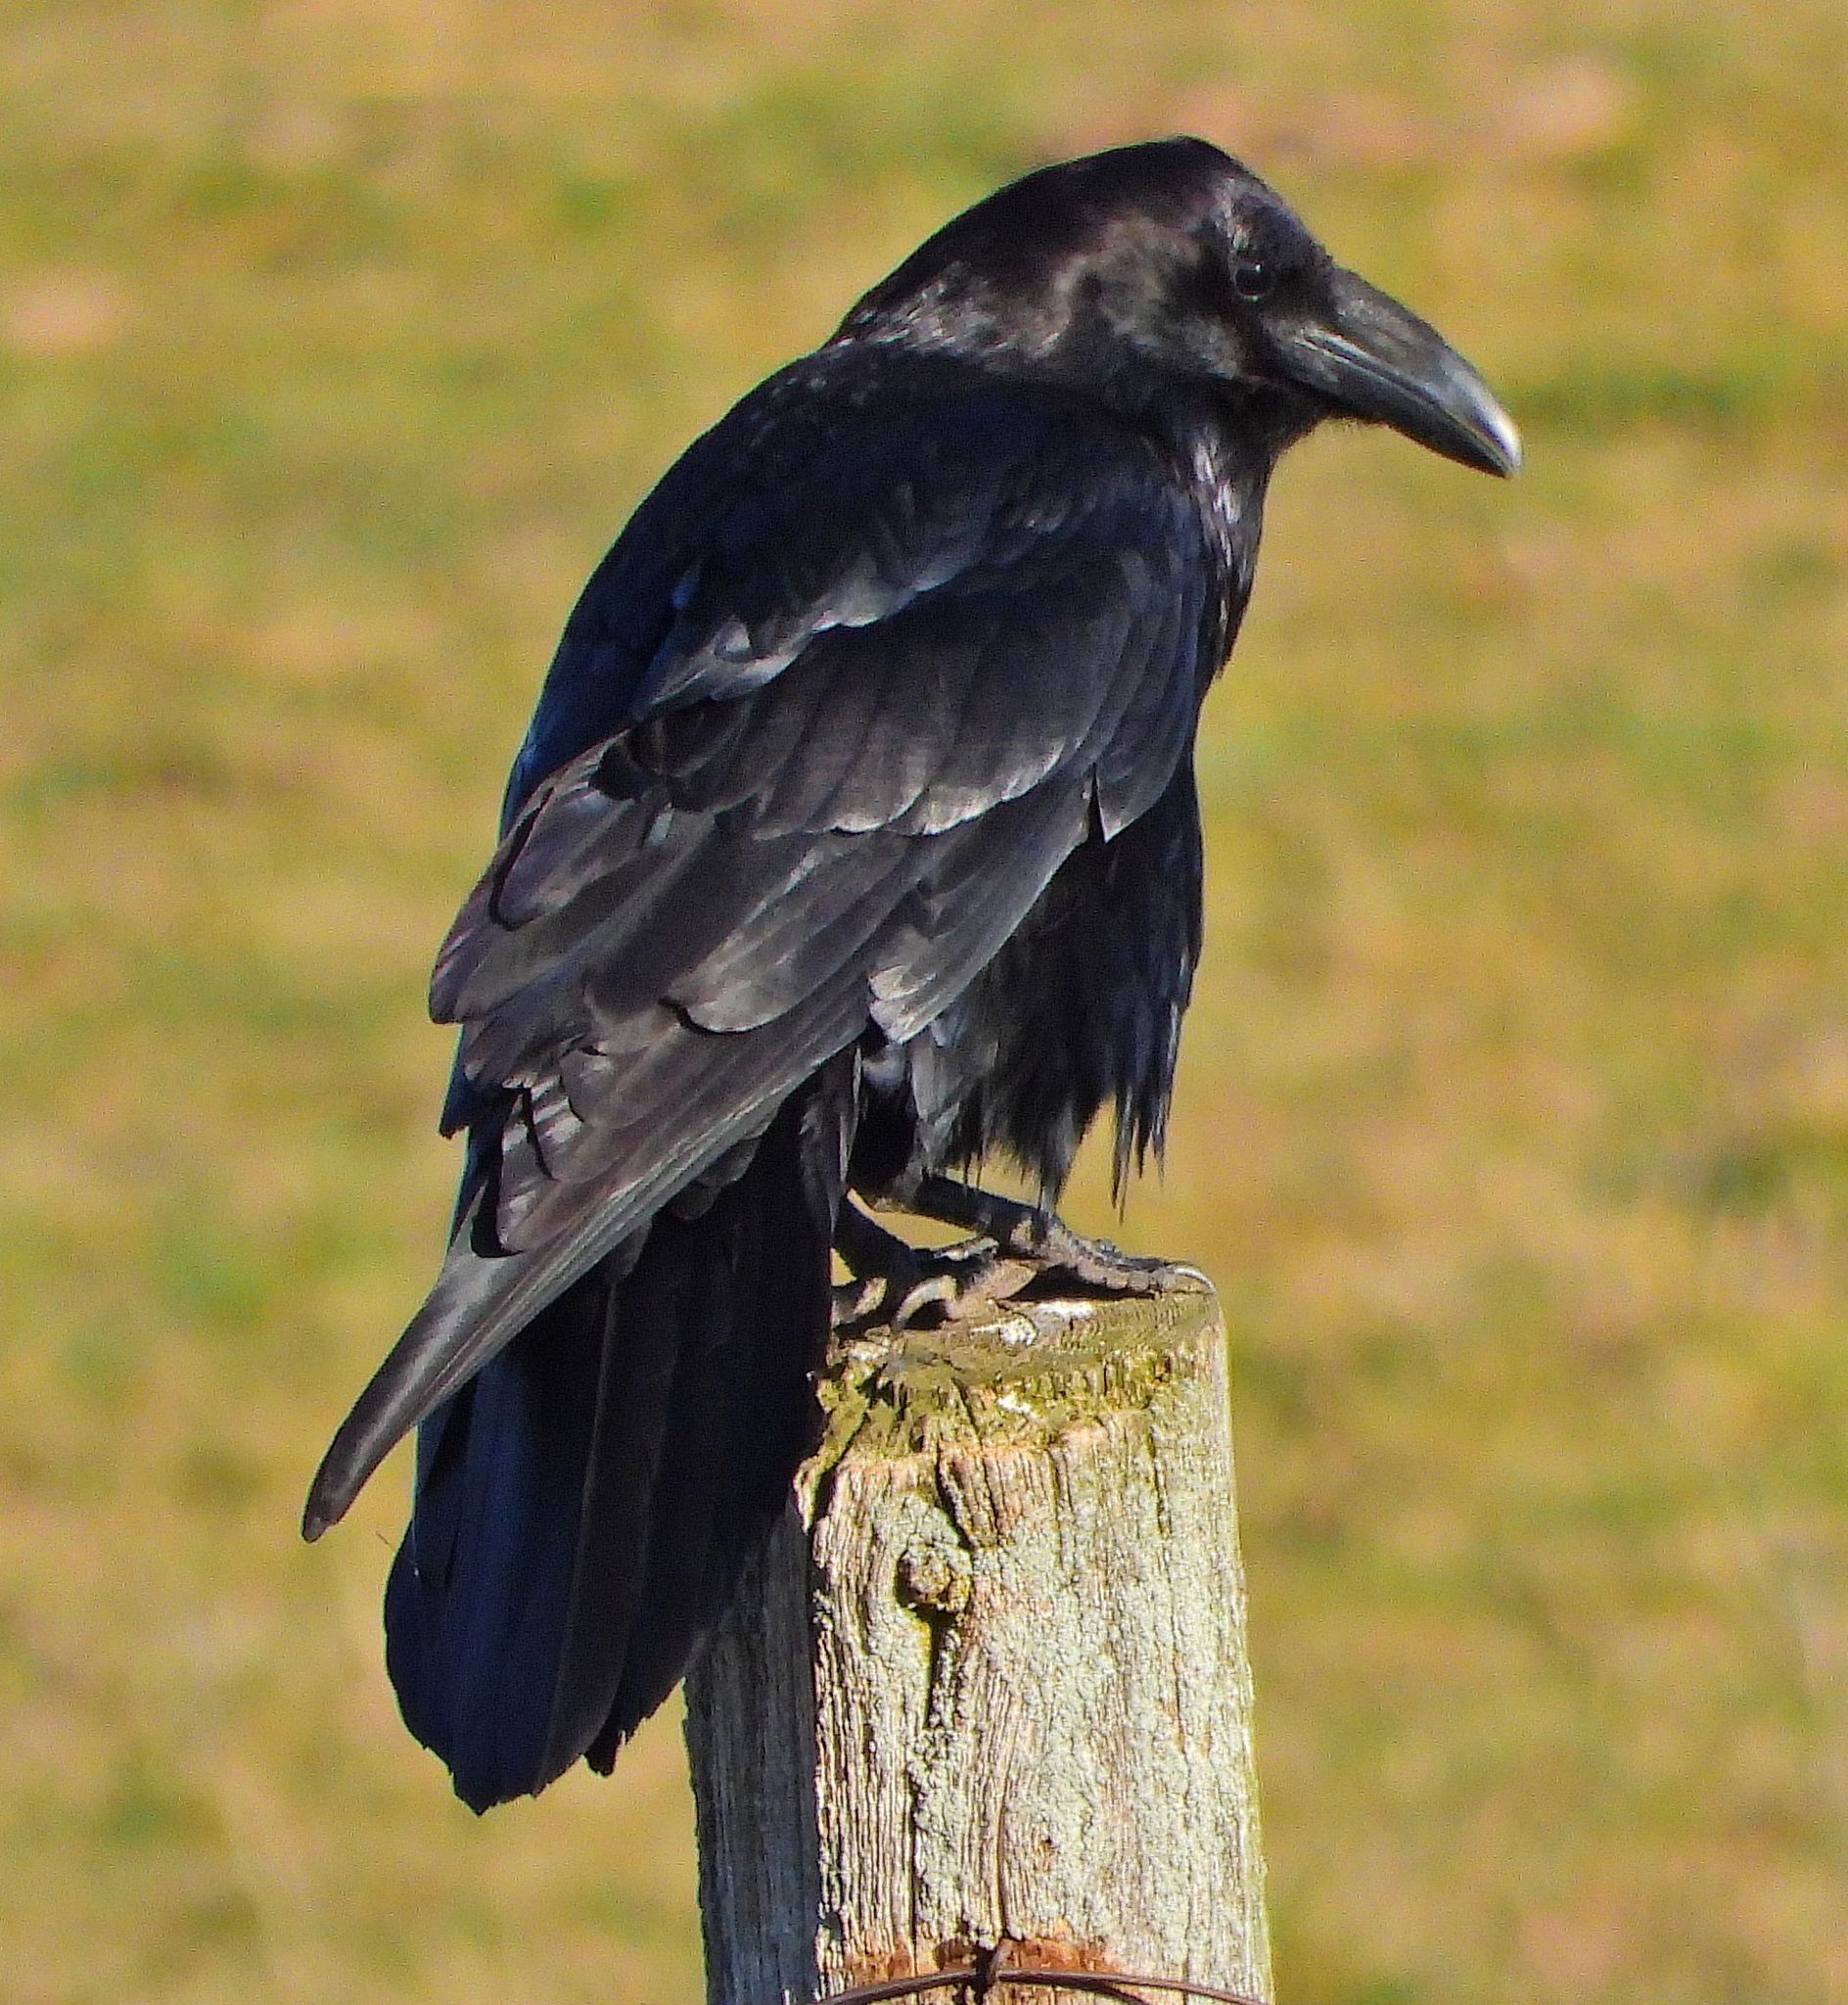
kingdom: Animalia
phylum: Chordata
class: Aves
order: Passeriformes
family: Corvidae
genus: Corvus
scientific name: Corvus corax
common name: Common raven
